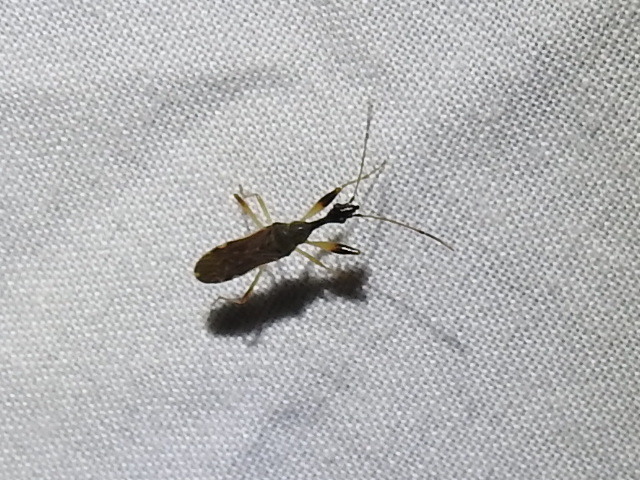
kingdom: Animalia
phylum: Arthropoda
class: Insecta
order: Hemiptera
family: Rhyparochromidae
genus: Myodocha
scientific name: Myodocha serripes
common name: Long-necked seed bug
